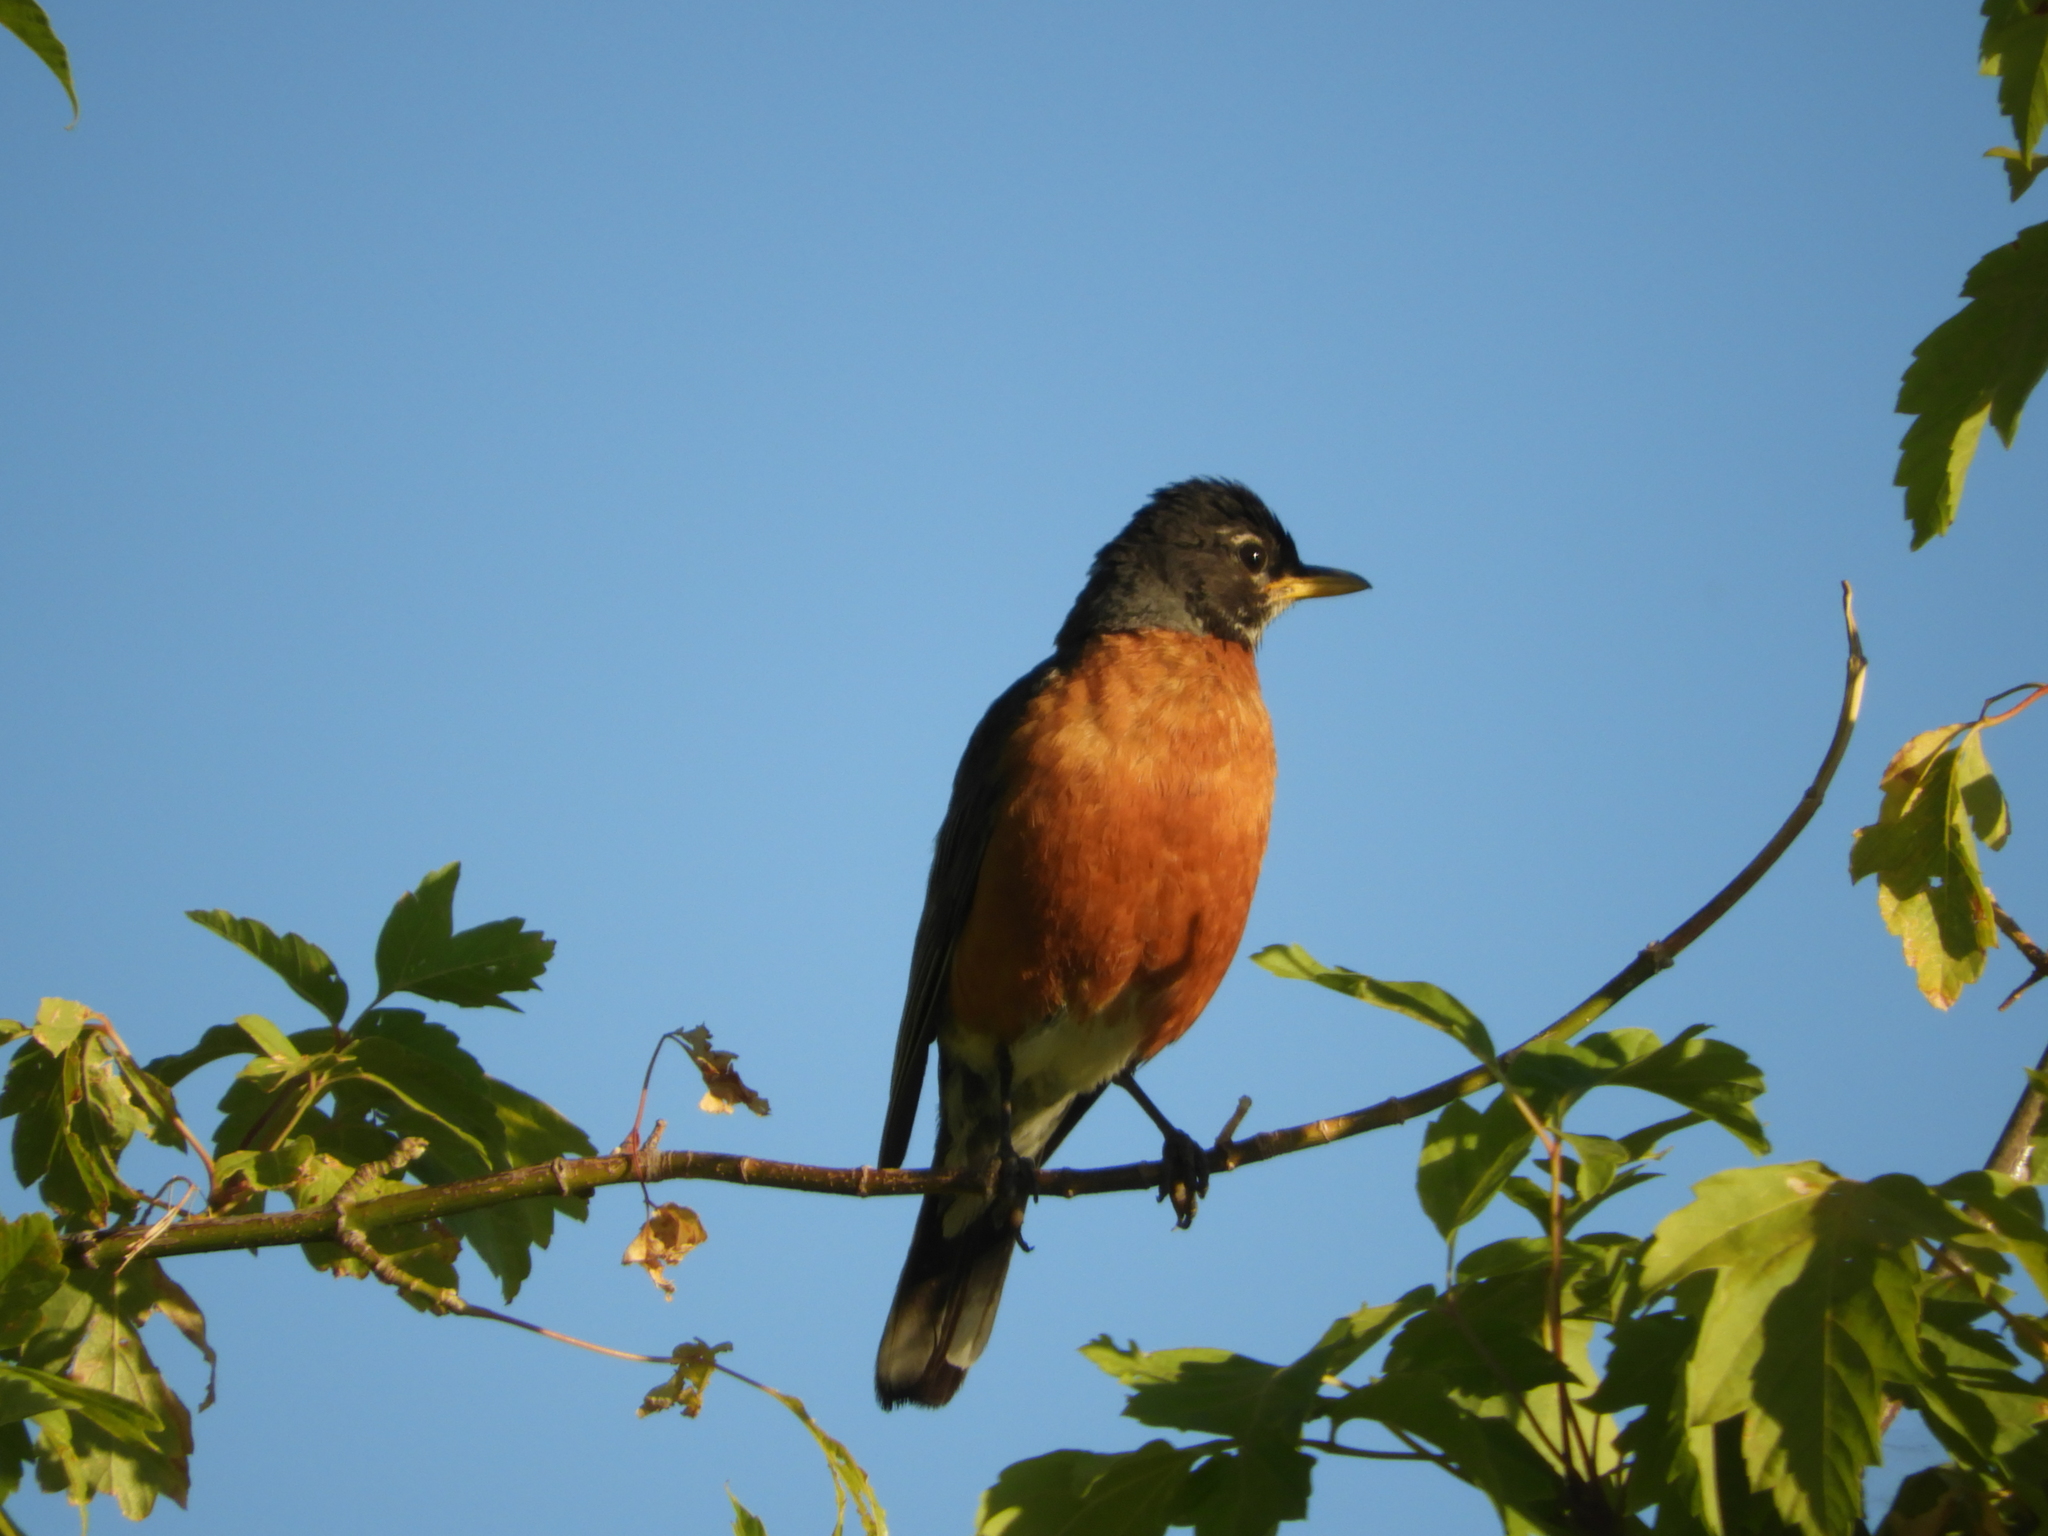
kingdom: Animalia
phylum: Chordata
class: Aves
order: Passeriformes
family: Turdidae
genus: Turdus
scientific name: Turdus migratorius
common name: American robin
